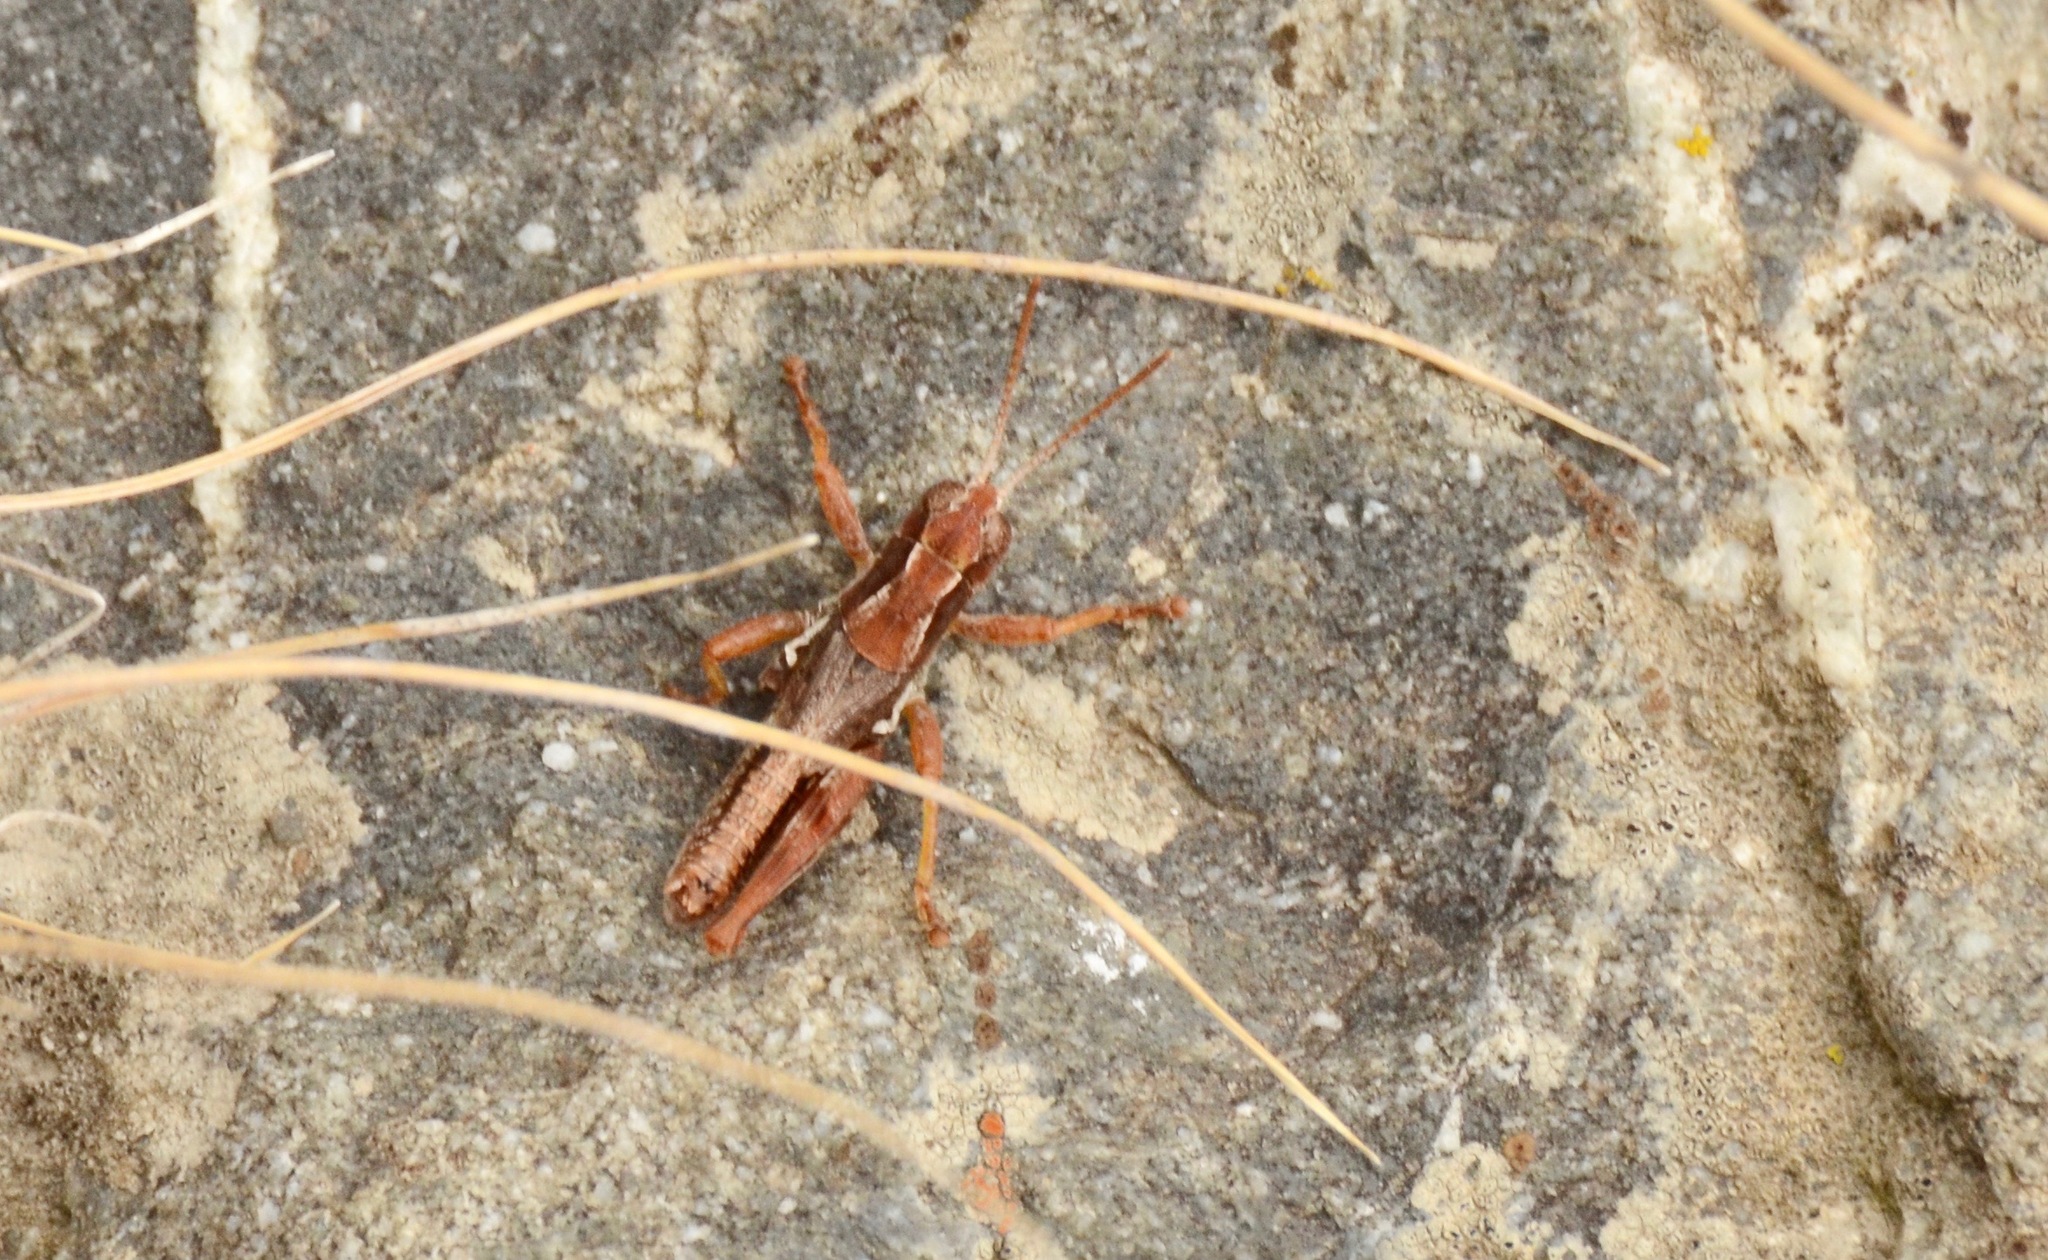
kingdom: Animalia
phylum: Arthropoda
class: Insecta
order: Orthoptera
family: Acrididae
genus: Phaulacridium
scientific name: Phaulacridium marginale
